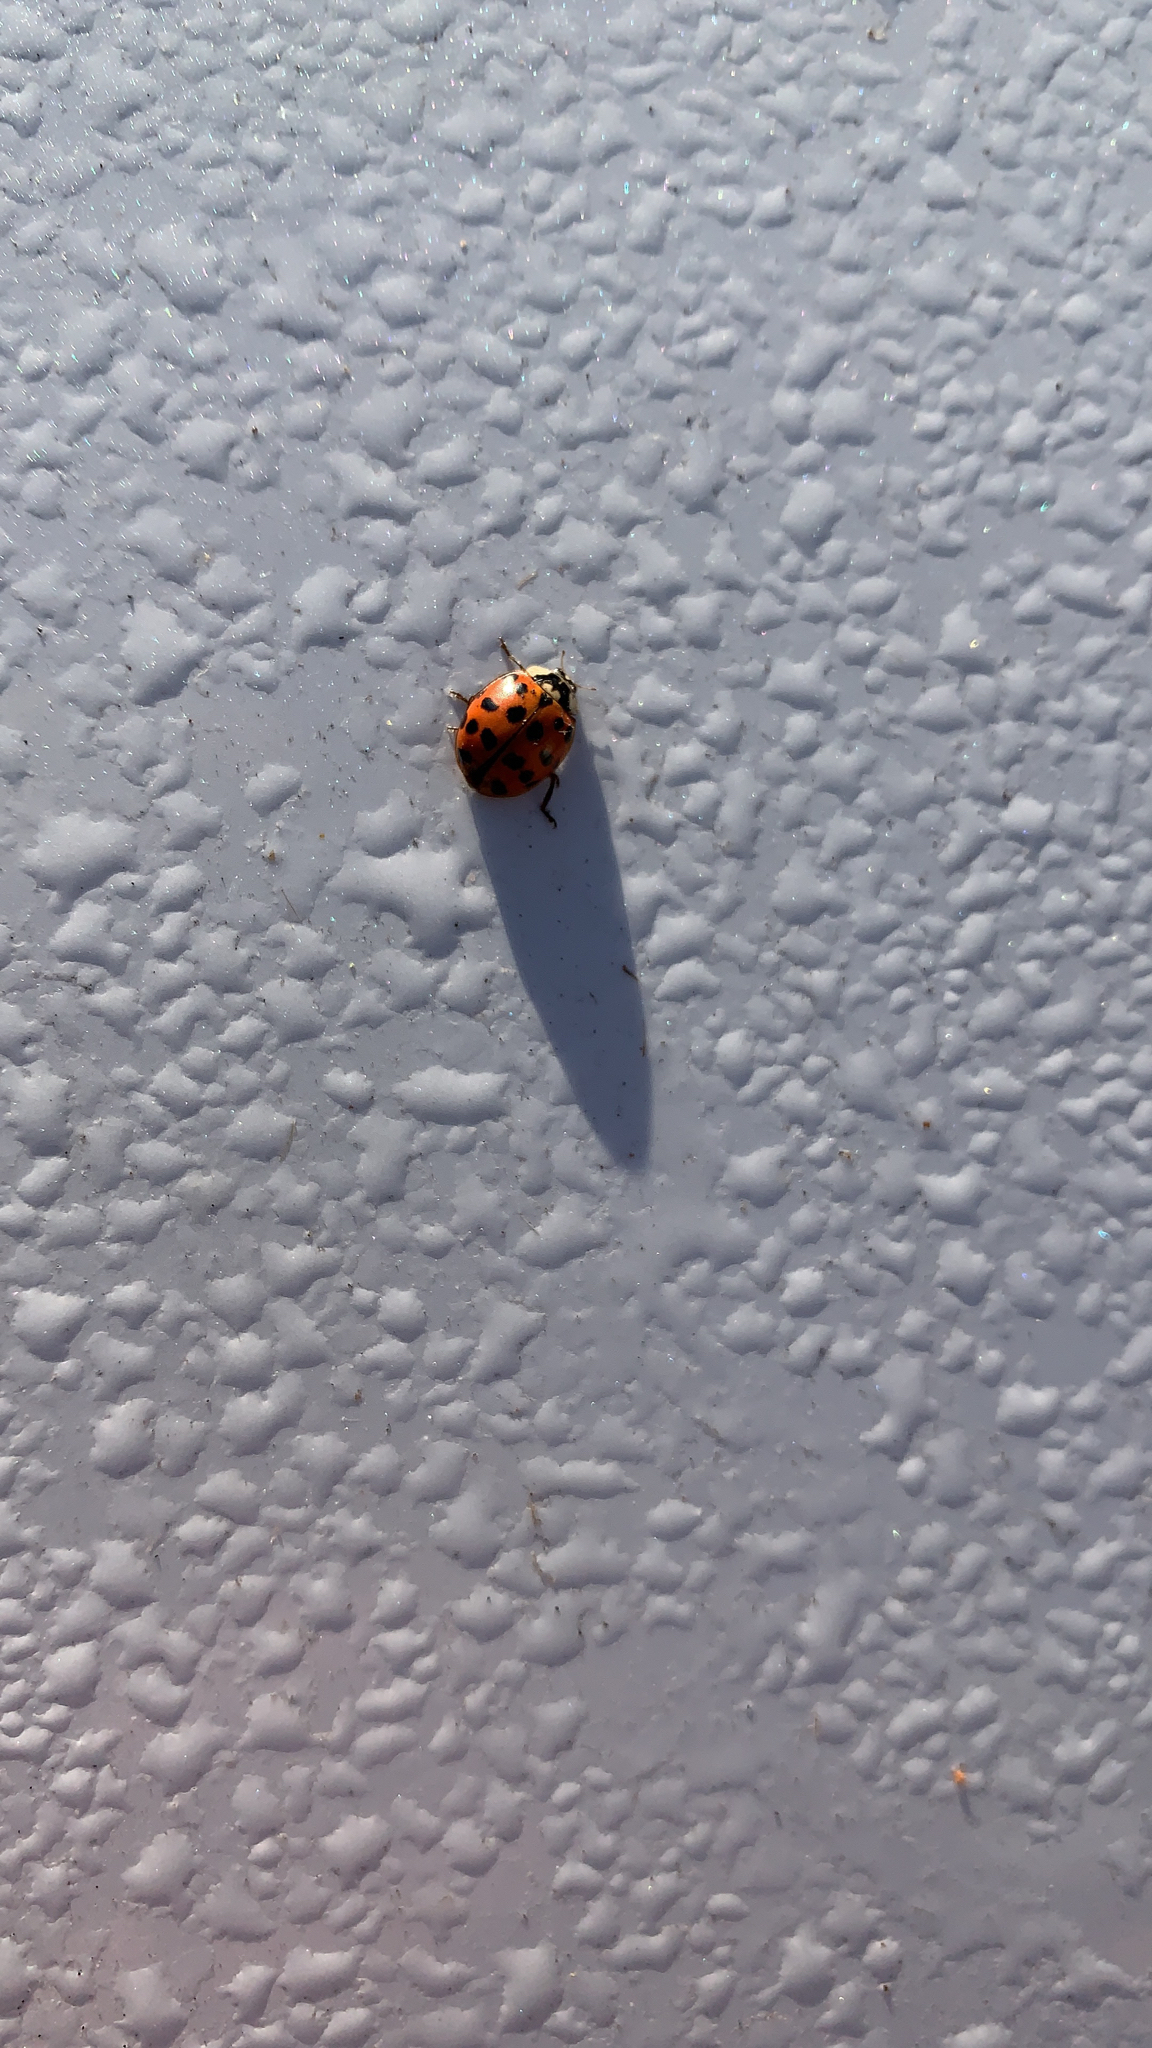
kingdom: Animalia
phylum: Arthropoda
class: Insecta
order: Coleoptera
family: Coccinellidae
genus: Harmonia
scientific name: Harmonia axyridis
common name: Harlequin ladybird
